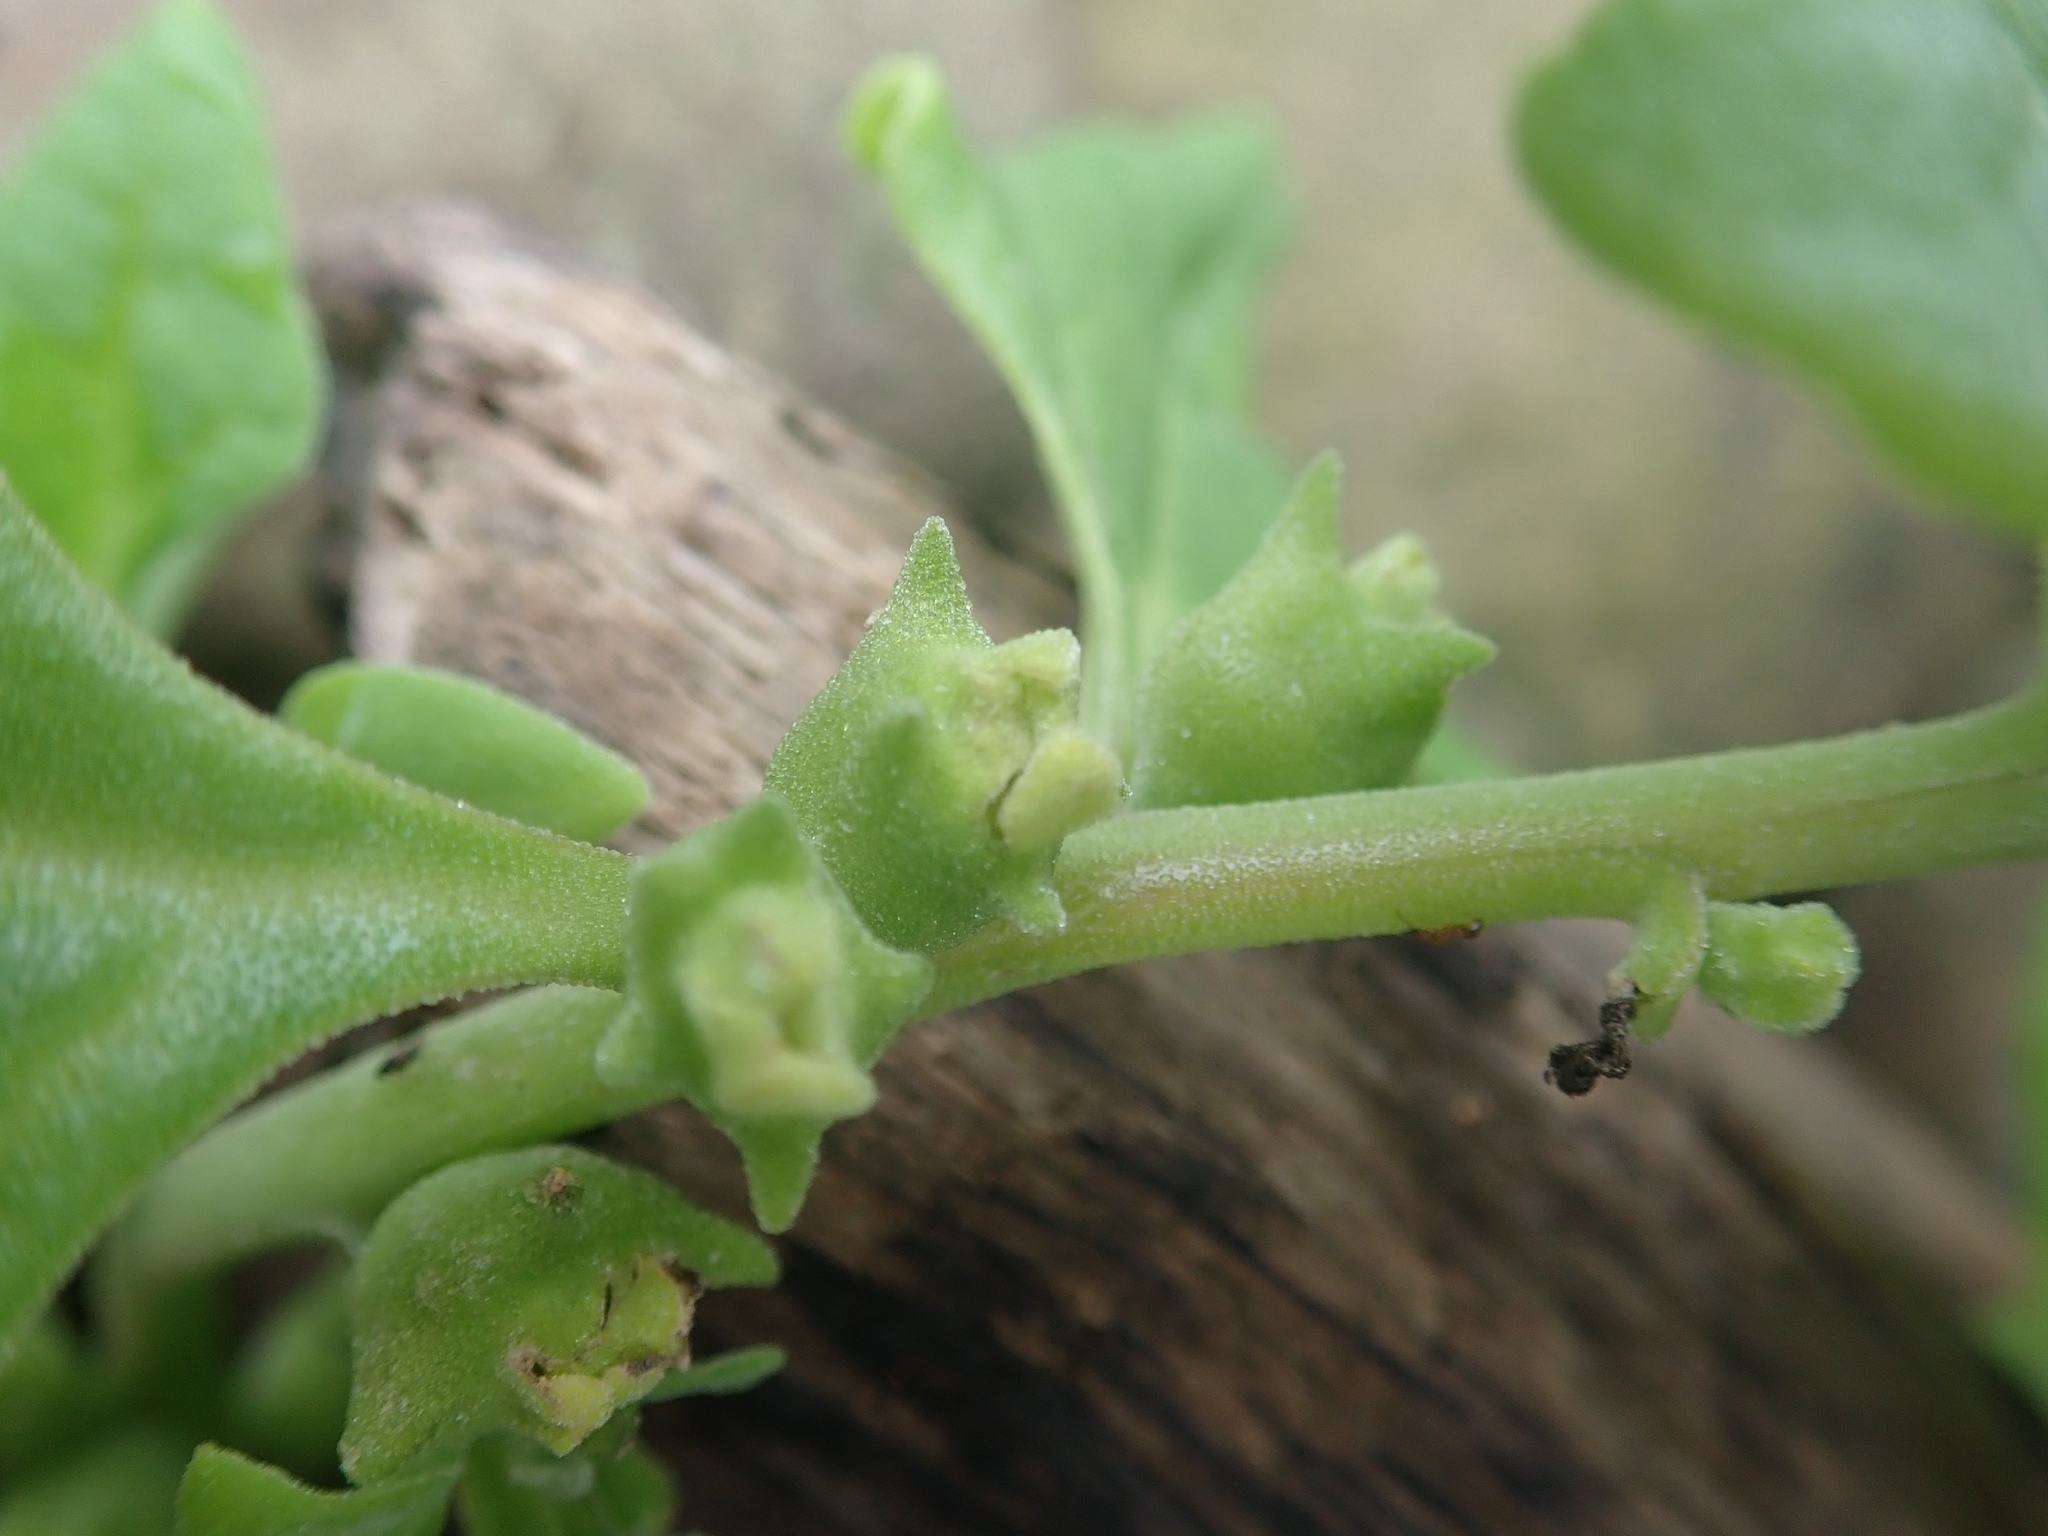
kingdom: Plantae
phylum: Tracheophyta
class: Magnoliopsida
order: Caryophyllales
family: Aizoaceae
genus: Tetragonia
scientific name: Tetragonia tetragonoides
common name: New zealand-spinach
